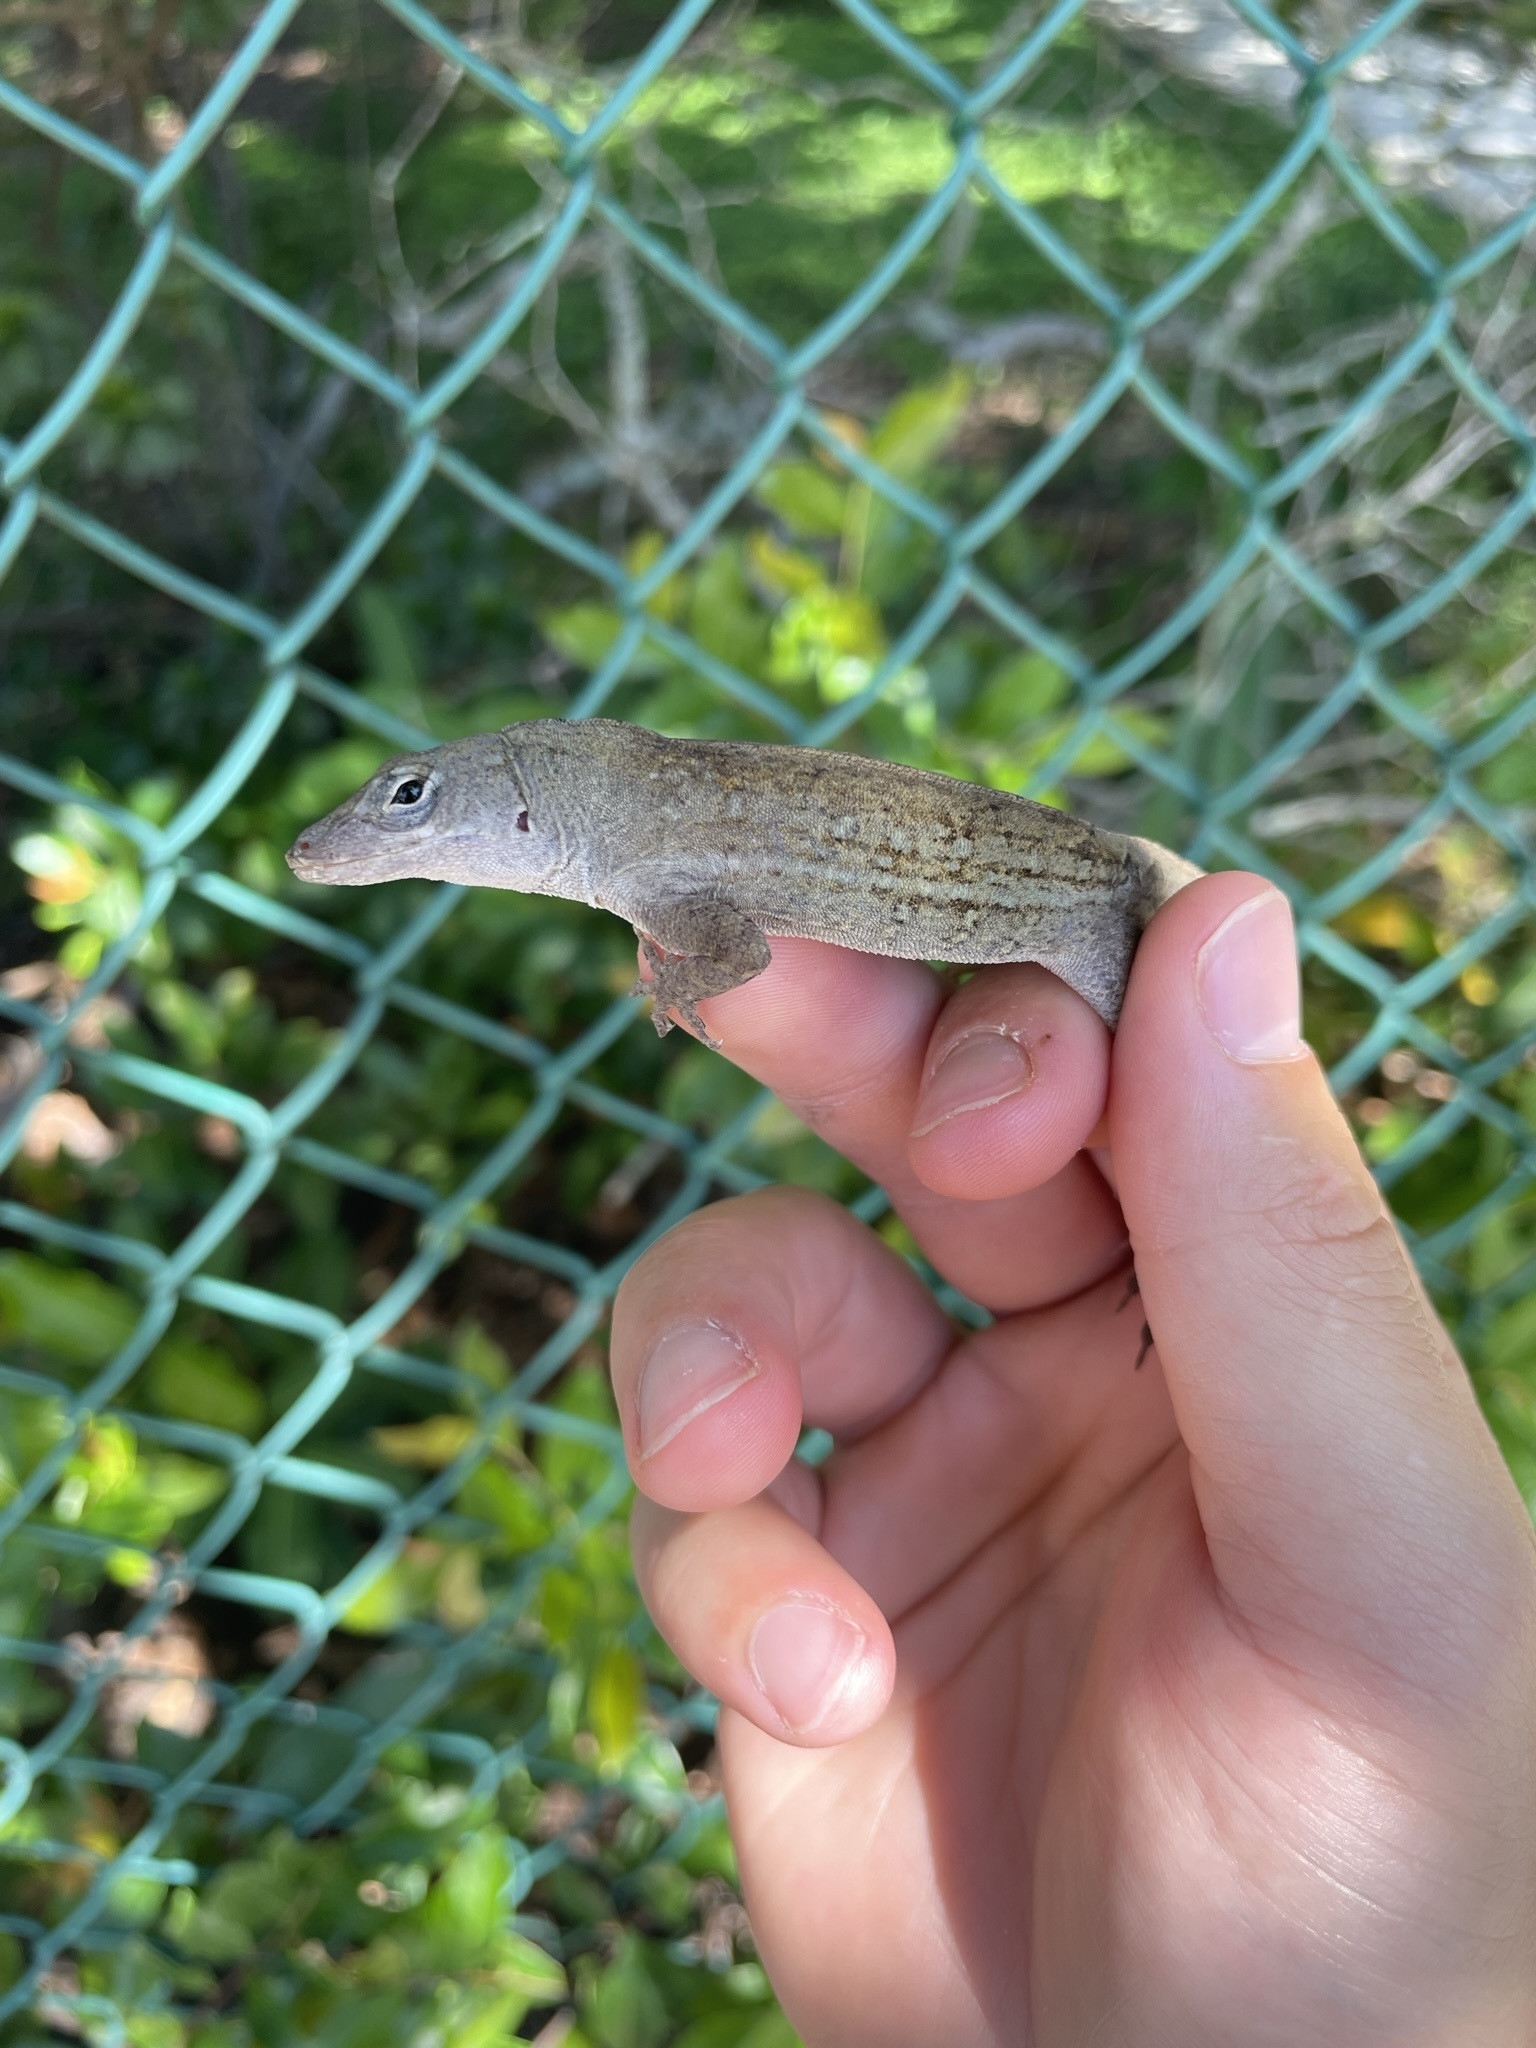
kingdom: Animalia
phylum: Chordata
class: Squamata
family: Dactyloidae
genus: Anolis
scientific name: Anolis sagrei
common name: Brown anole
